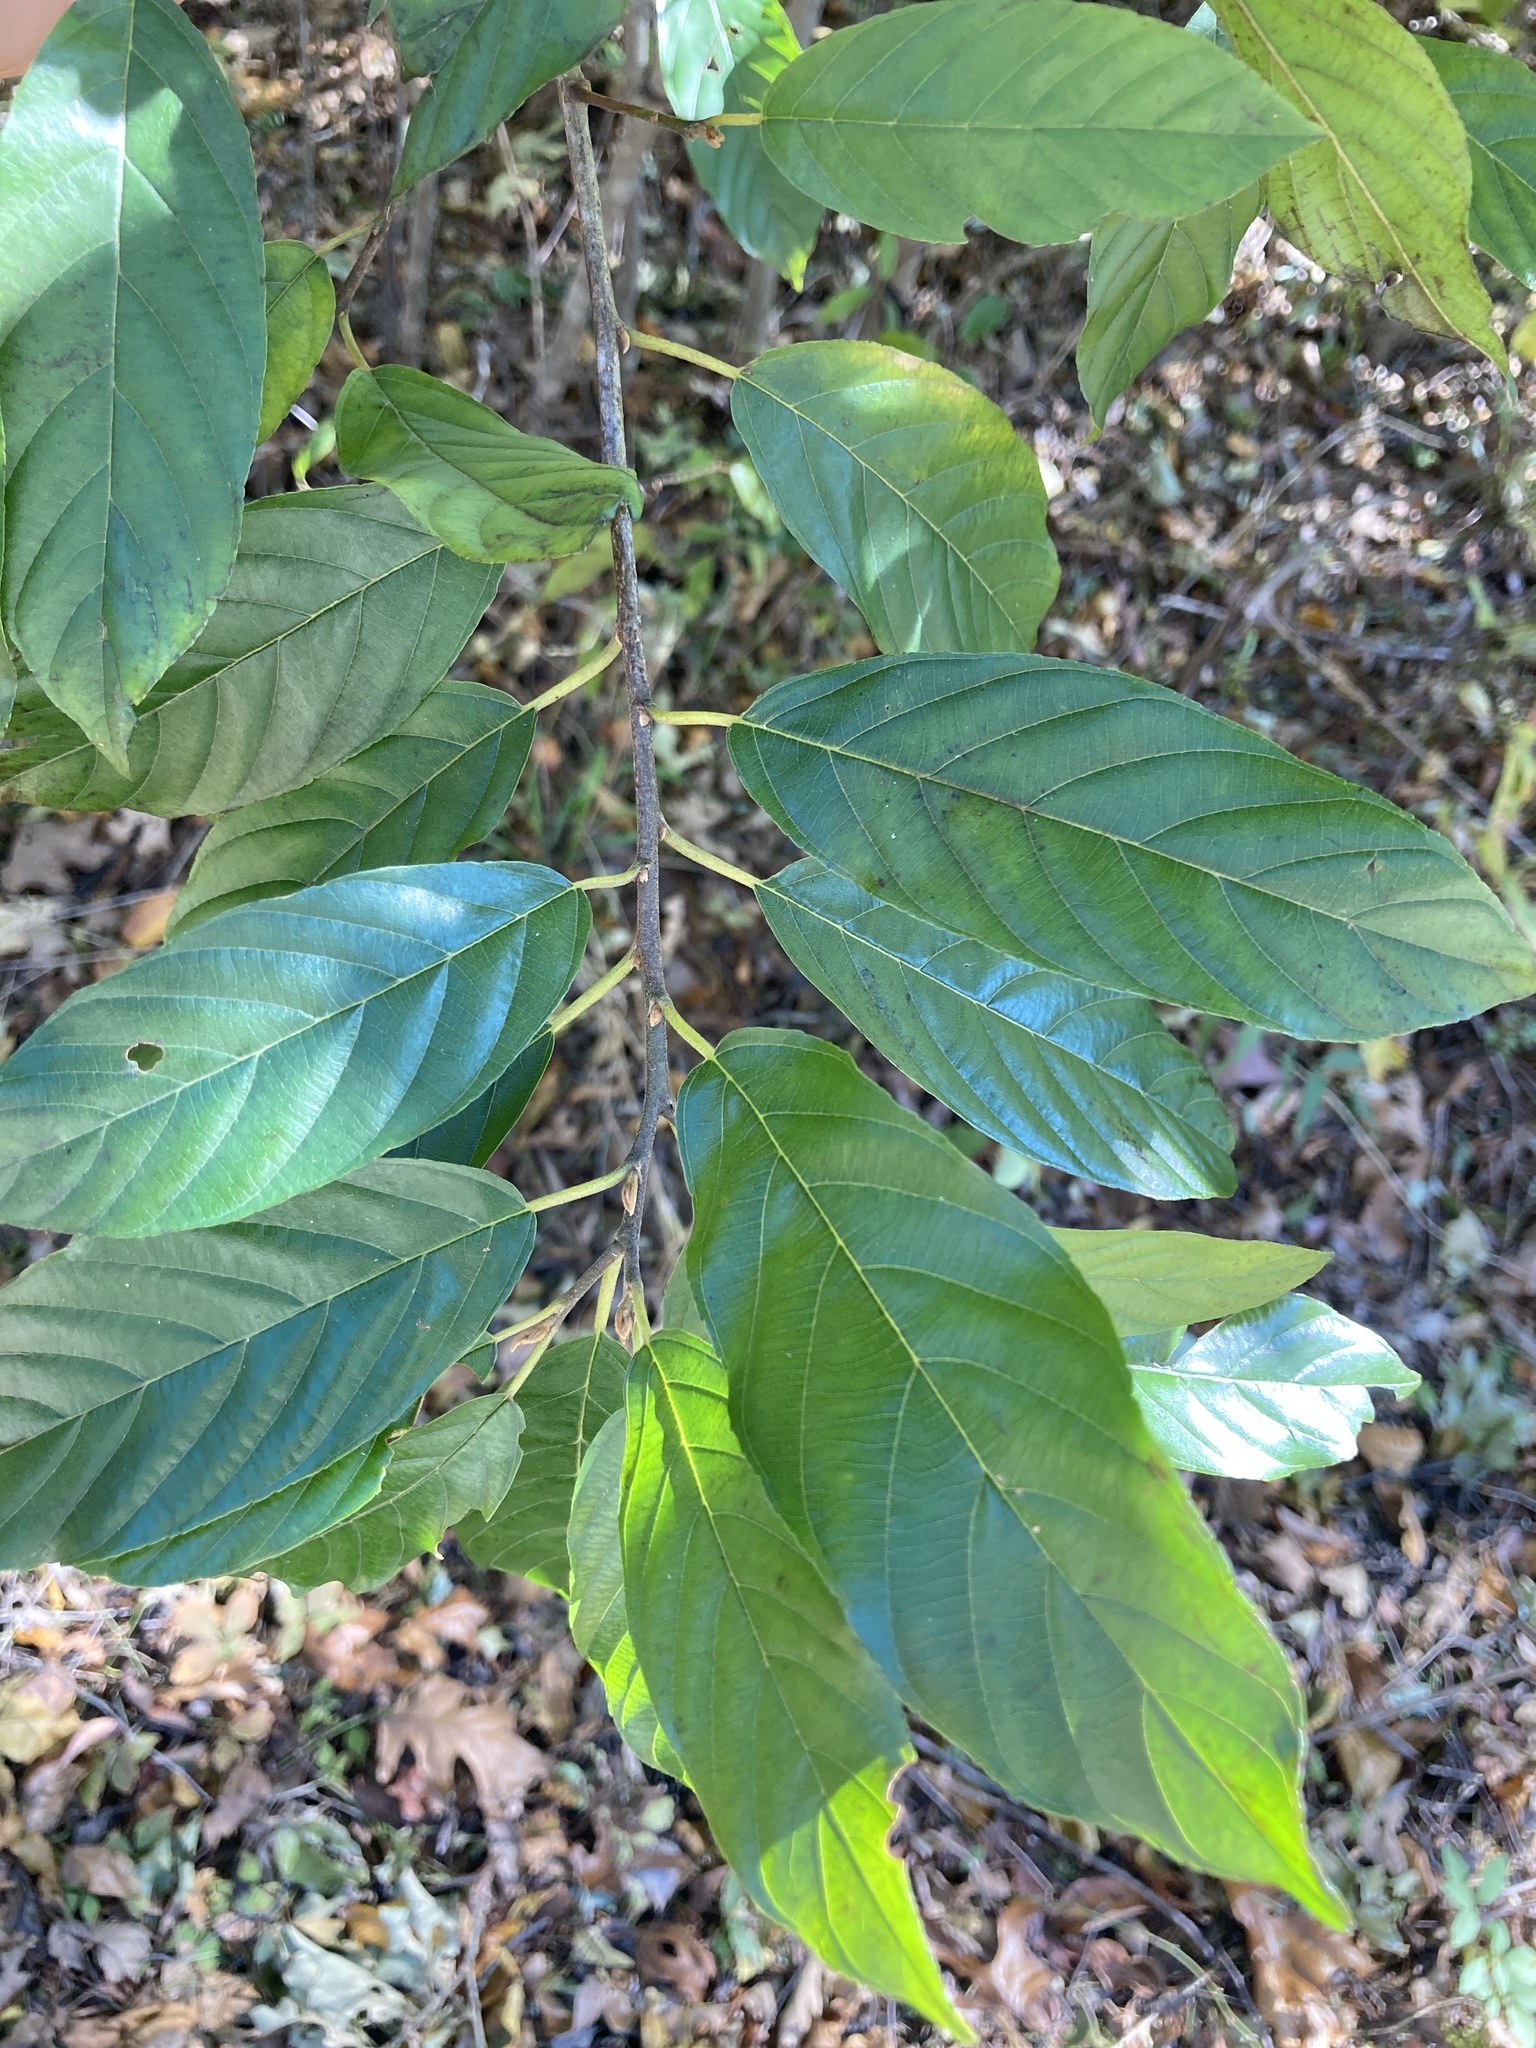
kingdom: Plantae
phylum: Tracheophyta
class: Magnoliopsida
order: Rosales
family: Rhamnaceae
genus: Frangula
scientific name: Frangula caroliniana
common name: Carolina buckthorn
